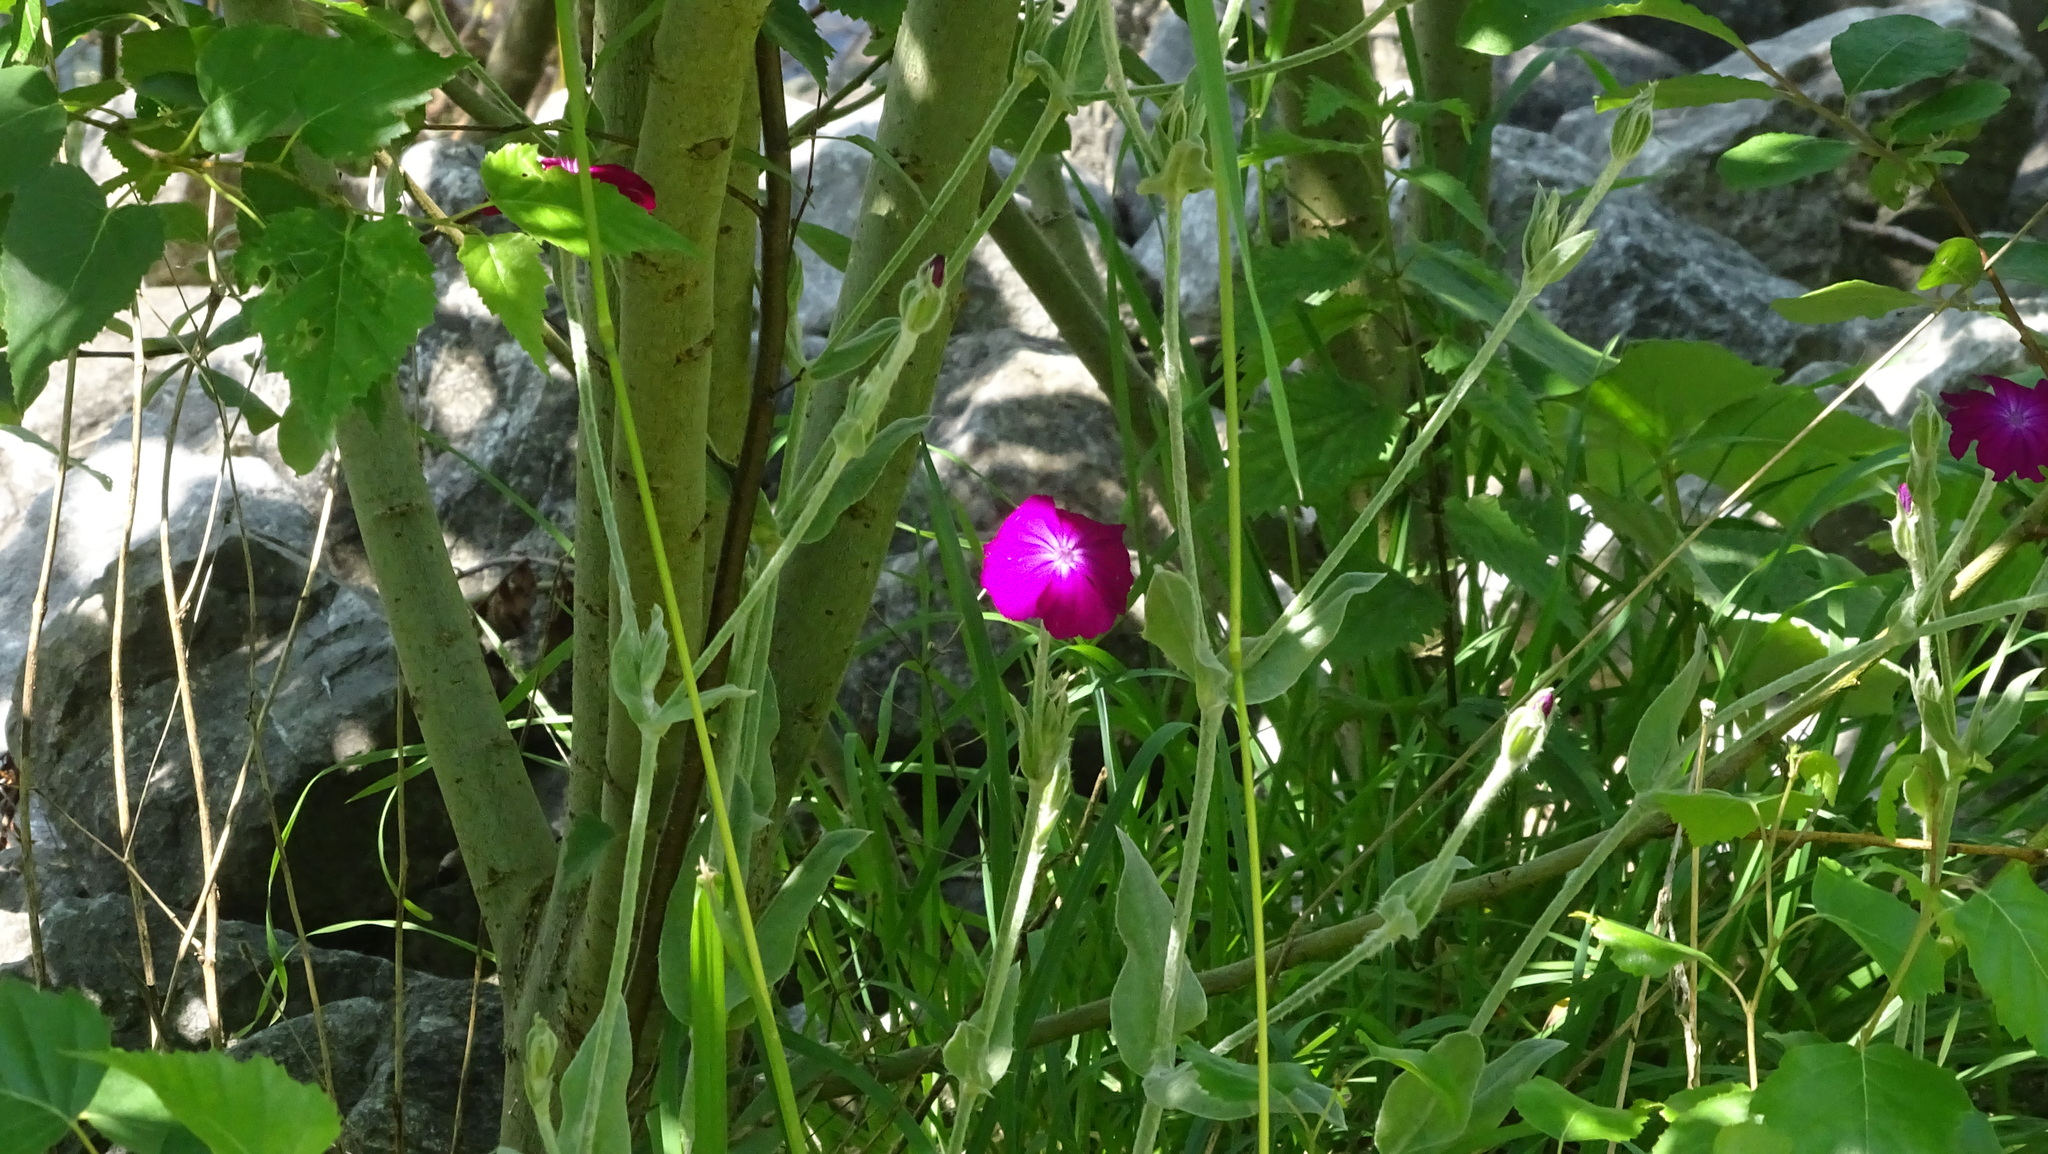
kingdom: Plantae
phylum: Tracheophyta
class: Magnoliopsida
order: Caryophyllales
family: Caryophyllaceae
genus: Silene
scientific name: Silene coronaria
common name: Rose campion
